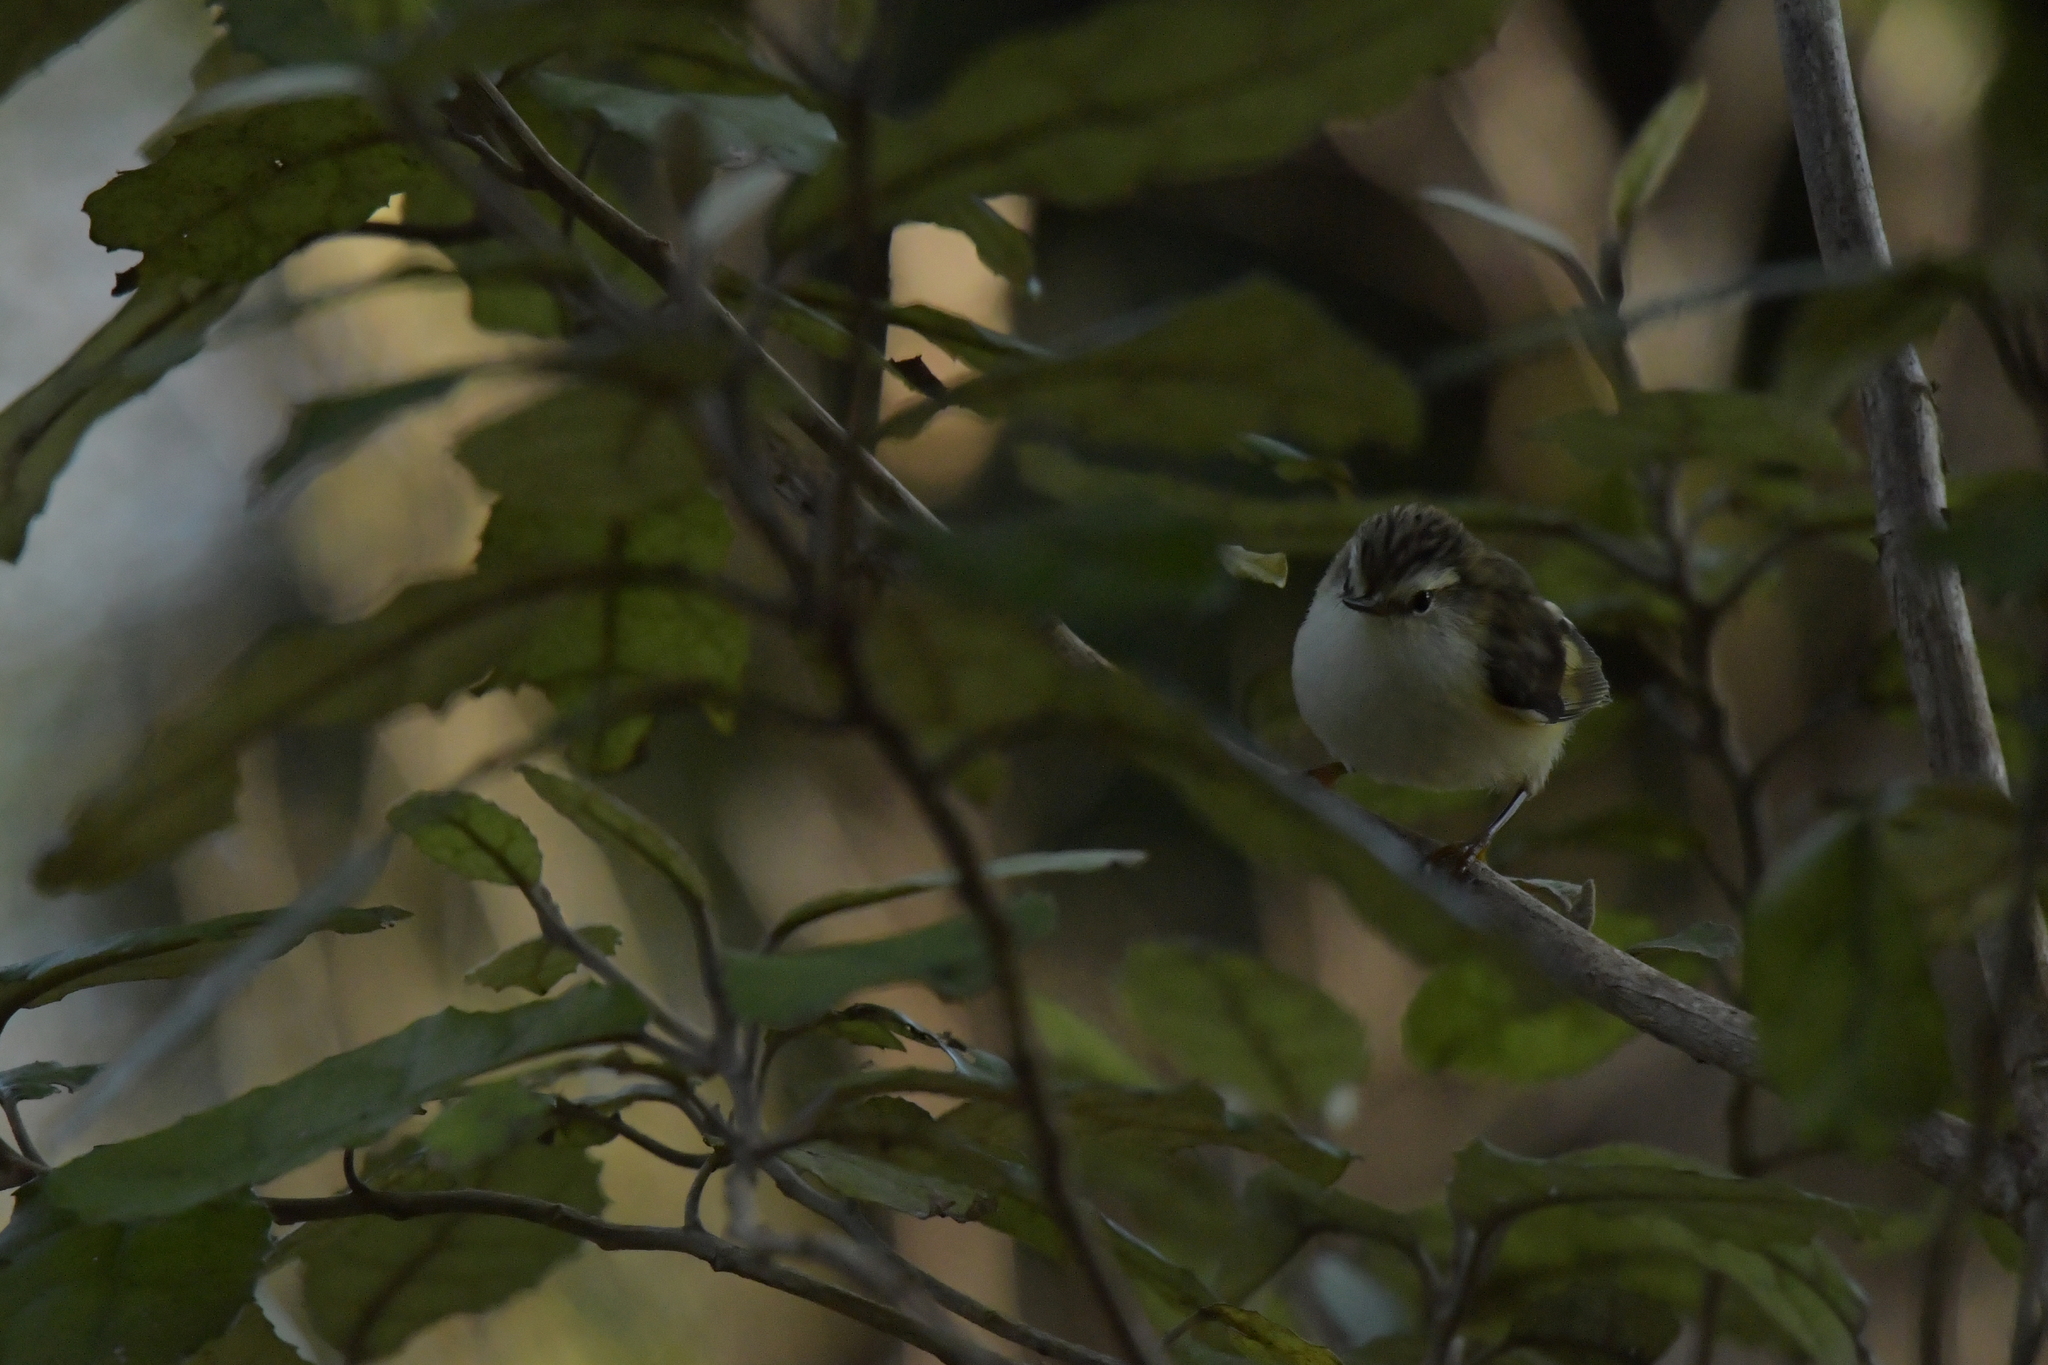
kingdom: Animalia
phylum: Chordata
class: Aves
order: Passeriformes
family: Acanthisittidae
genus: Acanthisitta
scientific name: Acanthisitta chloris
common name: Rifleman
